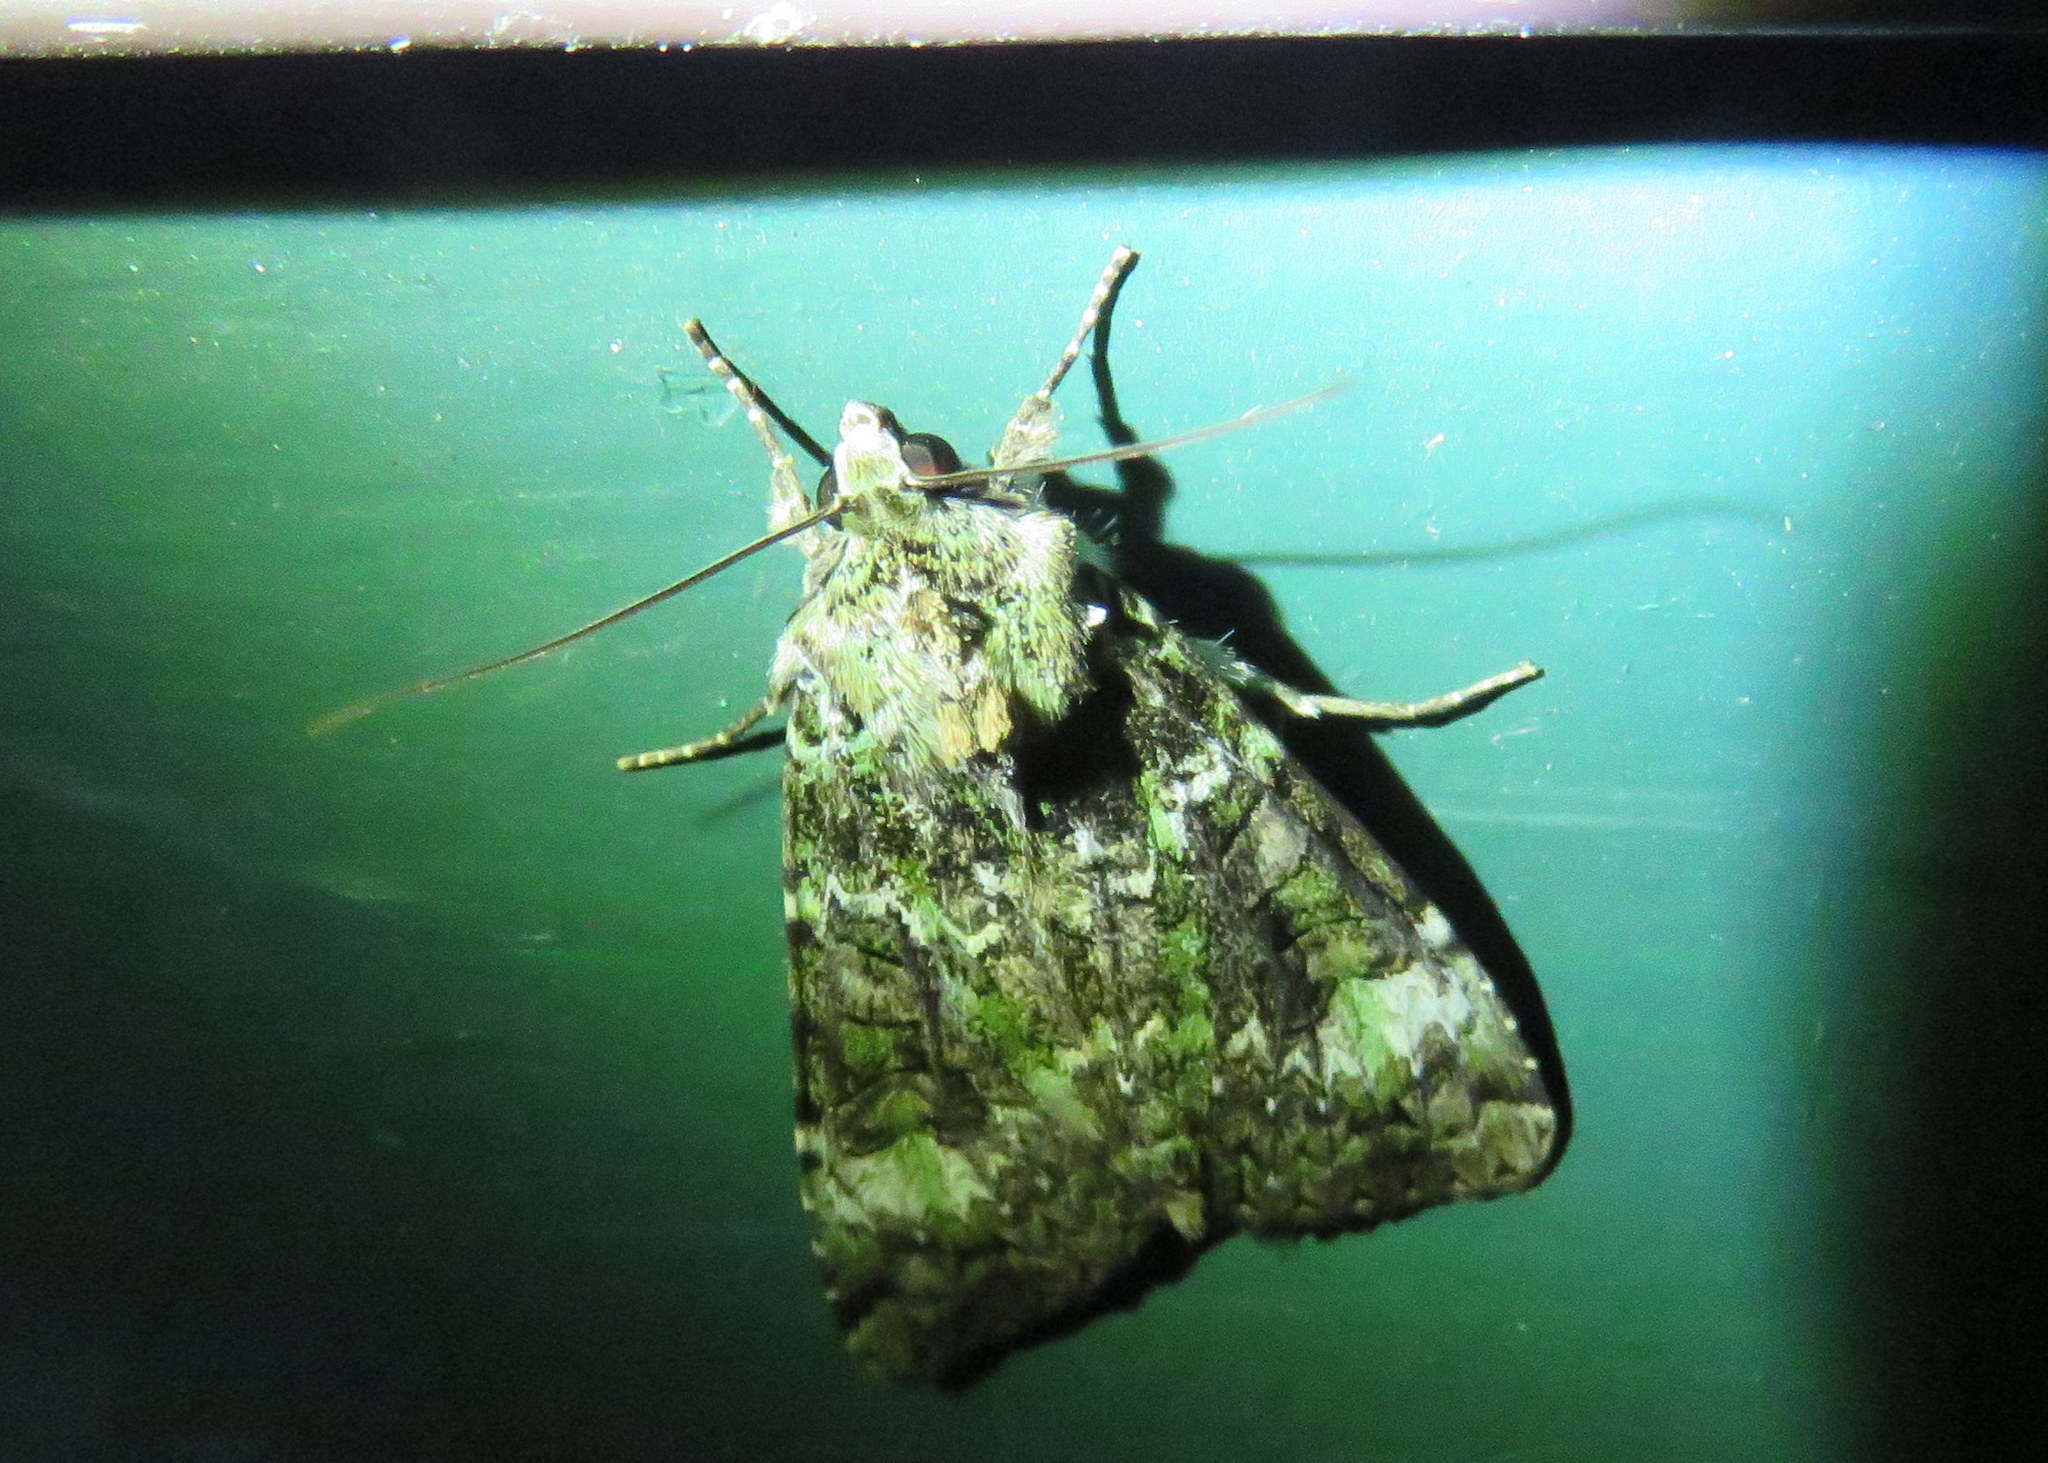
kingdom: Animalia
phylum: Arthropoda
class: Insecta
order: Lepidoptera
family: Noctuidae
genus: Anaplectoides
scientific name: Anaplectoides prasina
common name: Green arches
